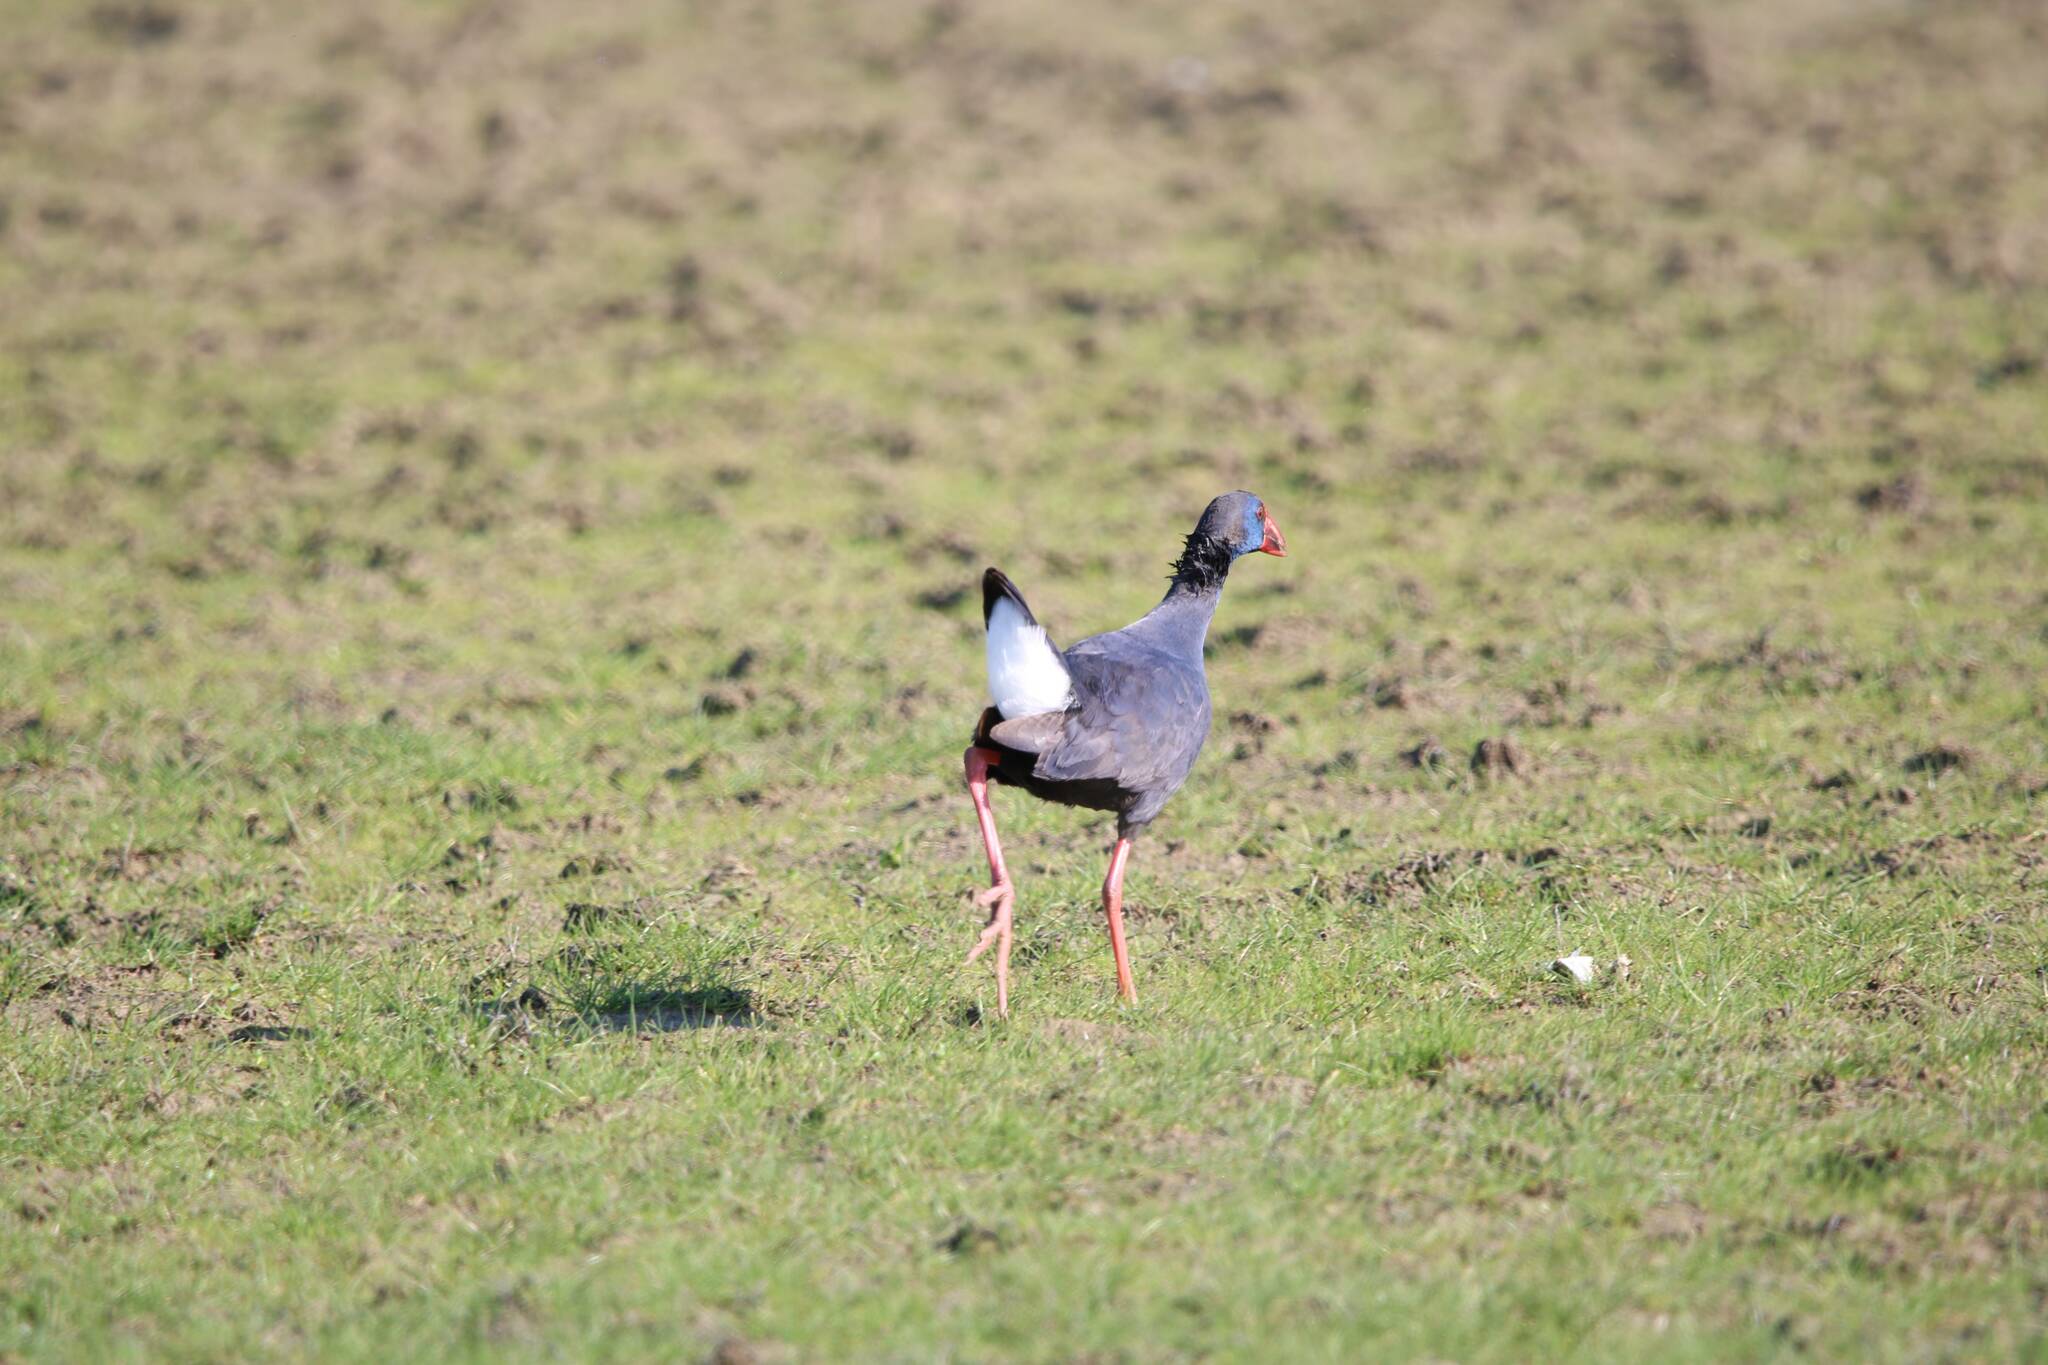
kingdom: Animalia
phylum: Chordata
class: Aves
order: Gruiformes
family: Rallidae
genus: Porphyrio
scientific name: Porphyrio porphyrio
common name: Purple swamphen
